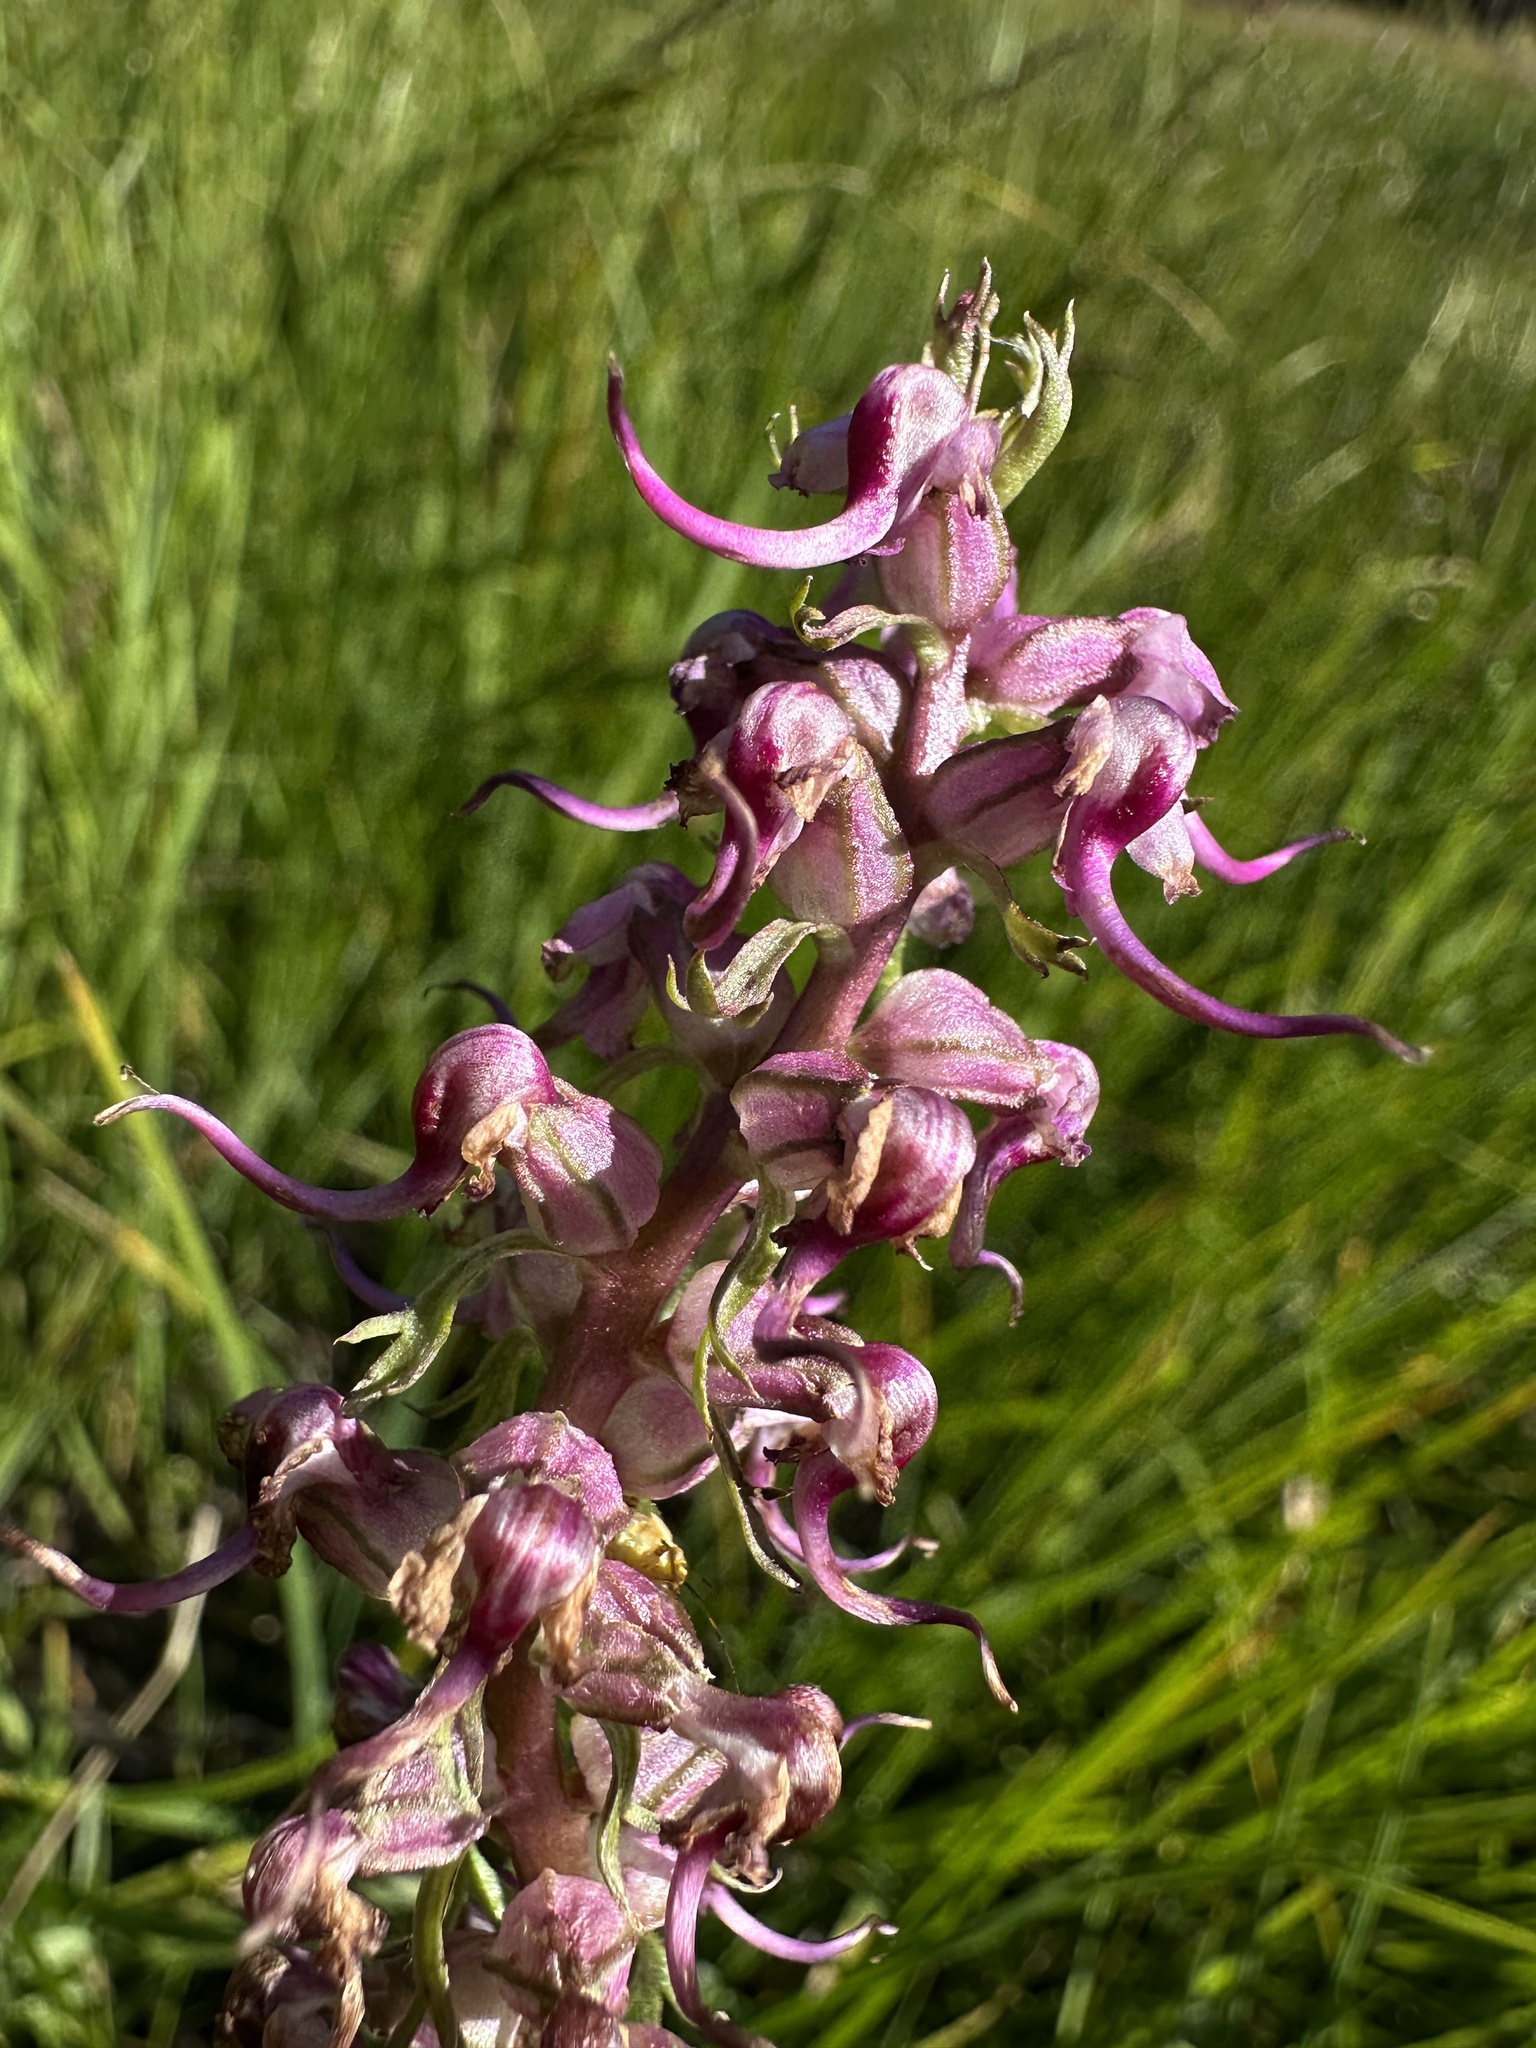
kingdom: Plantae
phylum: Tracheophyta
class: Magnoliopsida
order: Lamiales
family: Orobanchaceae
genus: Pedicularis
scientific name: Pedicularis groenlandica
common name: Elephant's-head
